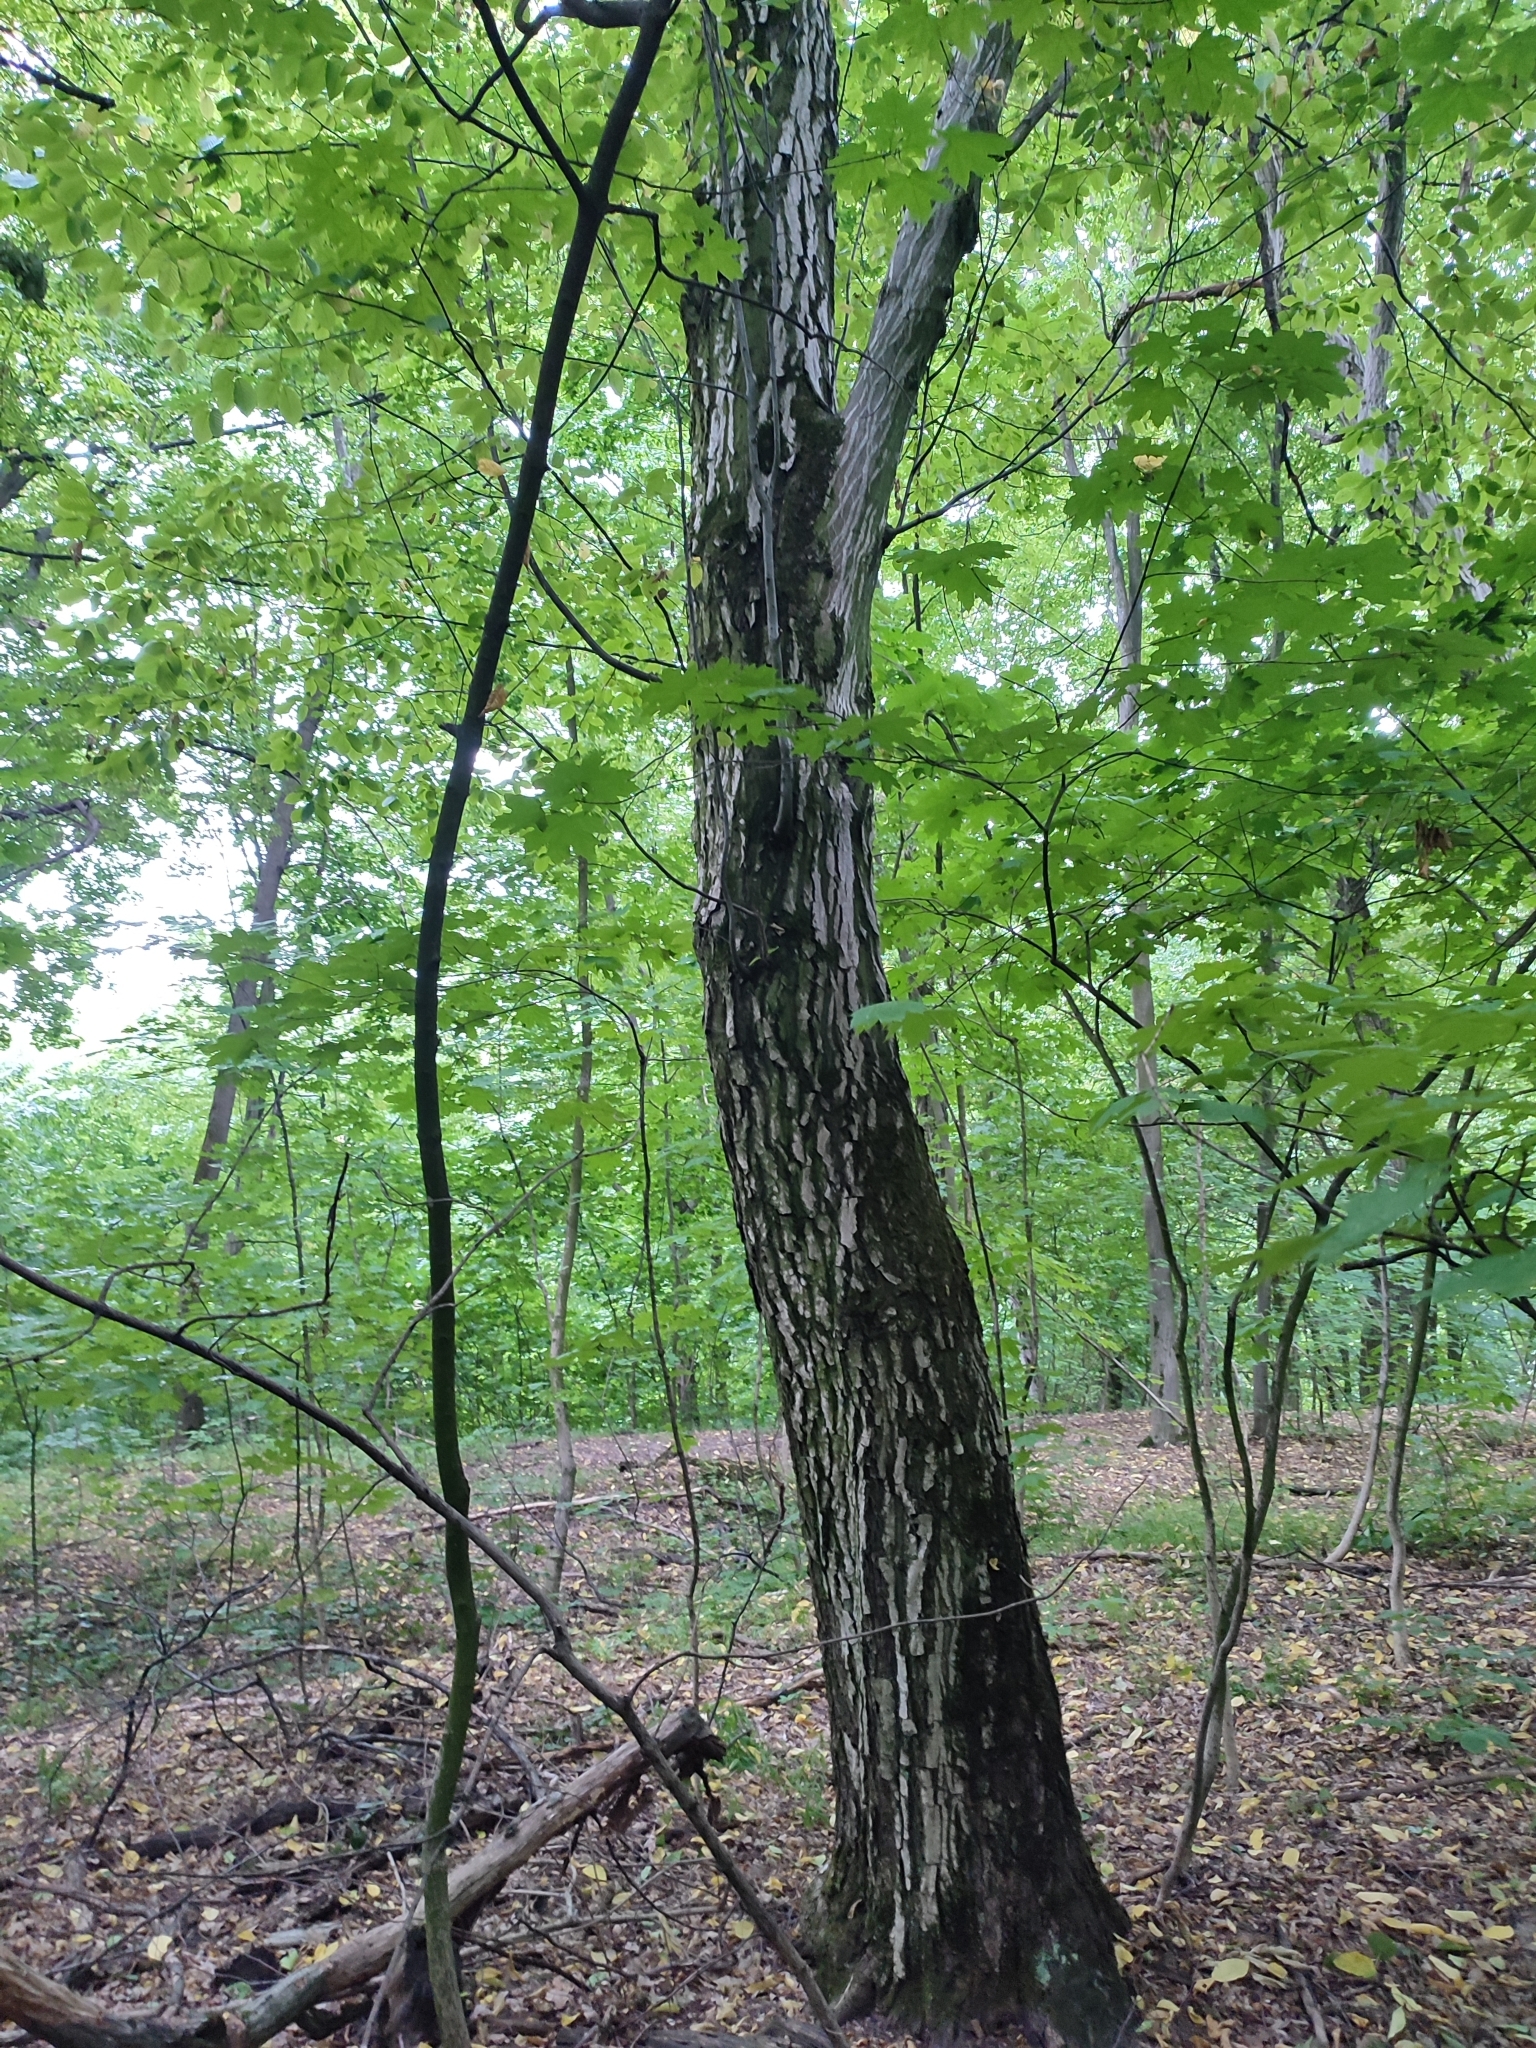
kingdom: Plantae
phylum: Tracheophyta
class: Magnoliopsida
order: Fagales
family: Betulaceae
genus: Carpinus
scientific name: Carpinus betulus
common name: Hornbeam
